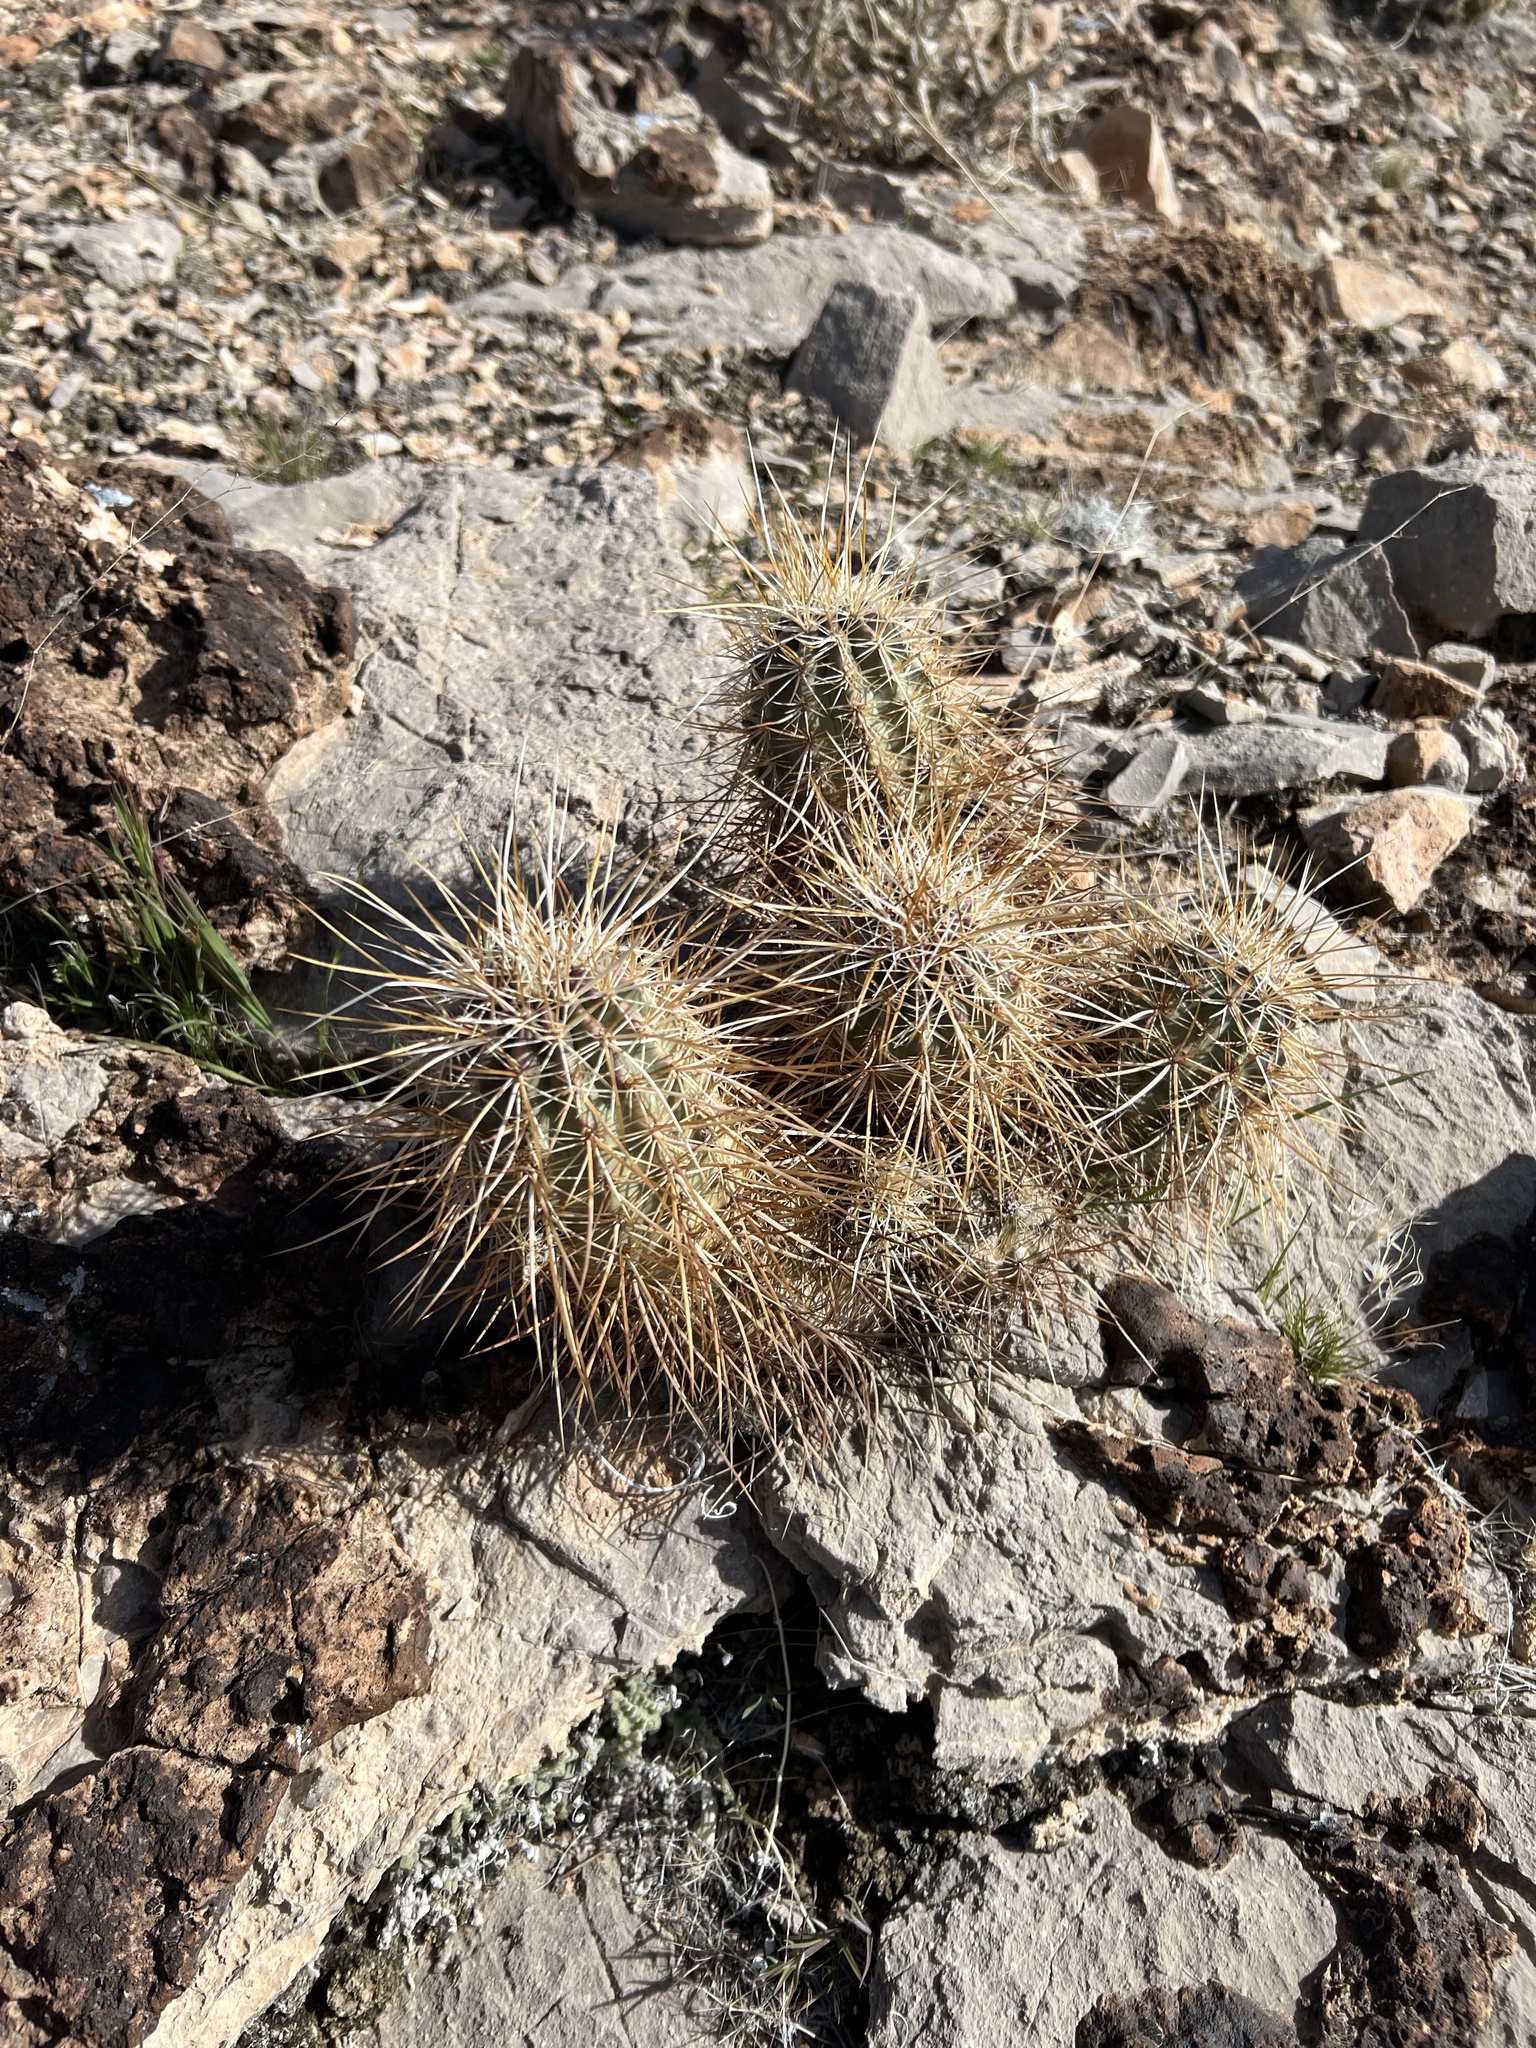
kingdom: Plantae
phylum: Tracheophyta
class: Magnoliopsida
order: Caryophyllales
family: Cactaceae
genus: Echinocereus
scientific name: Echinocereus engelmannii
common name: Engelmann's hedgehog cactus
